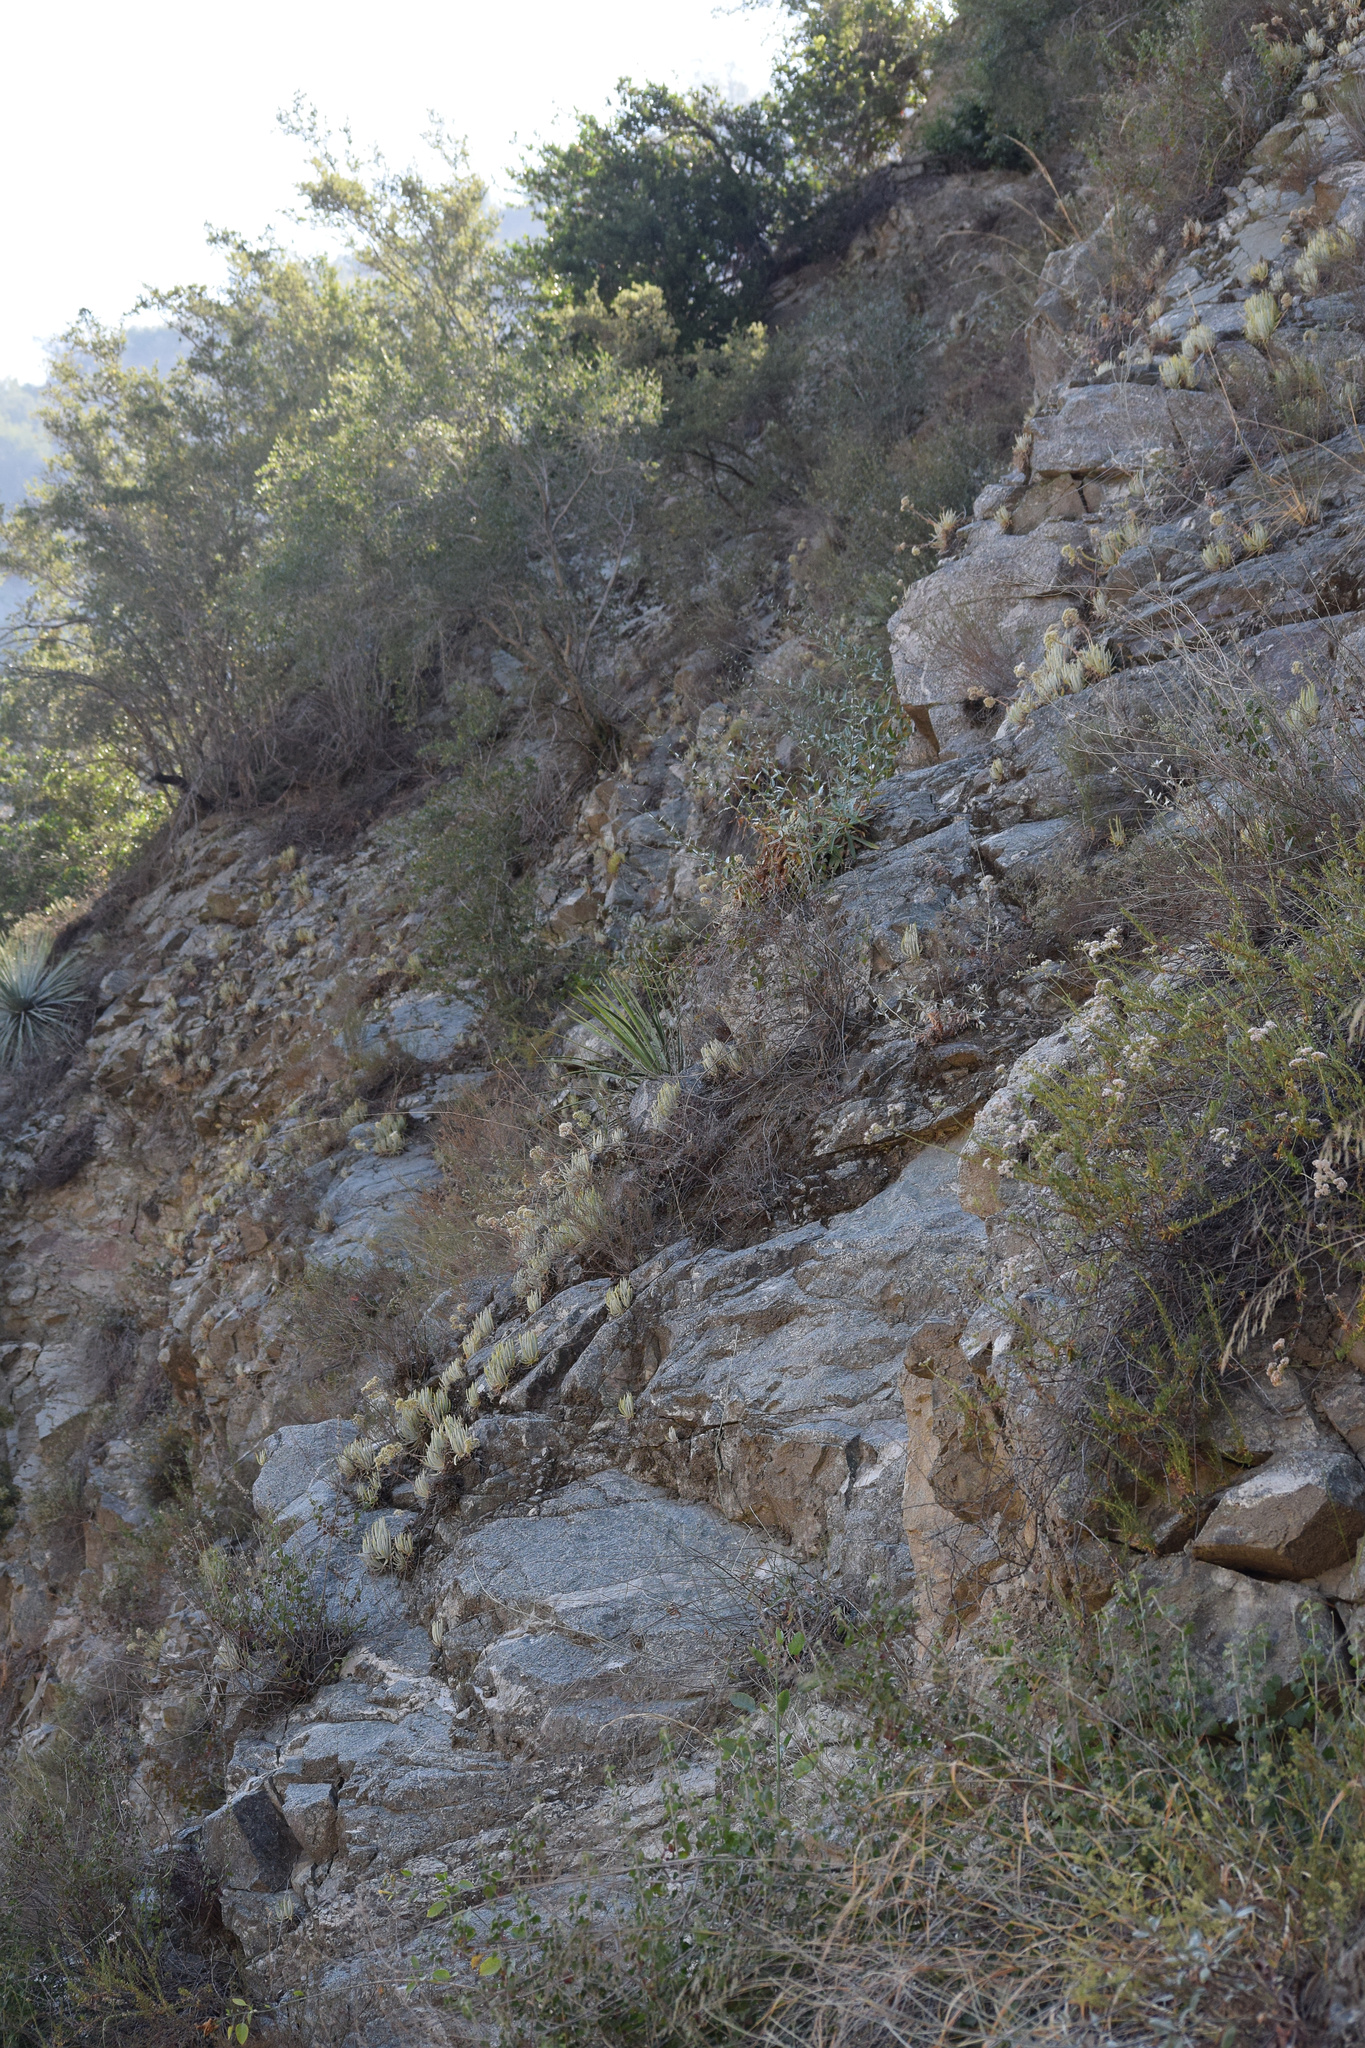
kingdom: Plantae
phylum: Tracheophyta
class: Magnoliopsida
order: Saxifragales
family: Crassulaceae
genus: Dudleya
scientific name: Dudleya densiflora
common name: San gabriel mountains dudleya
